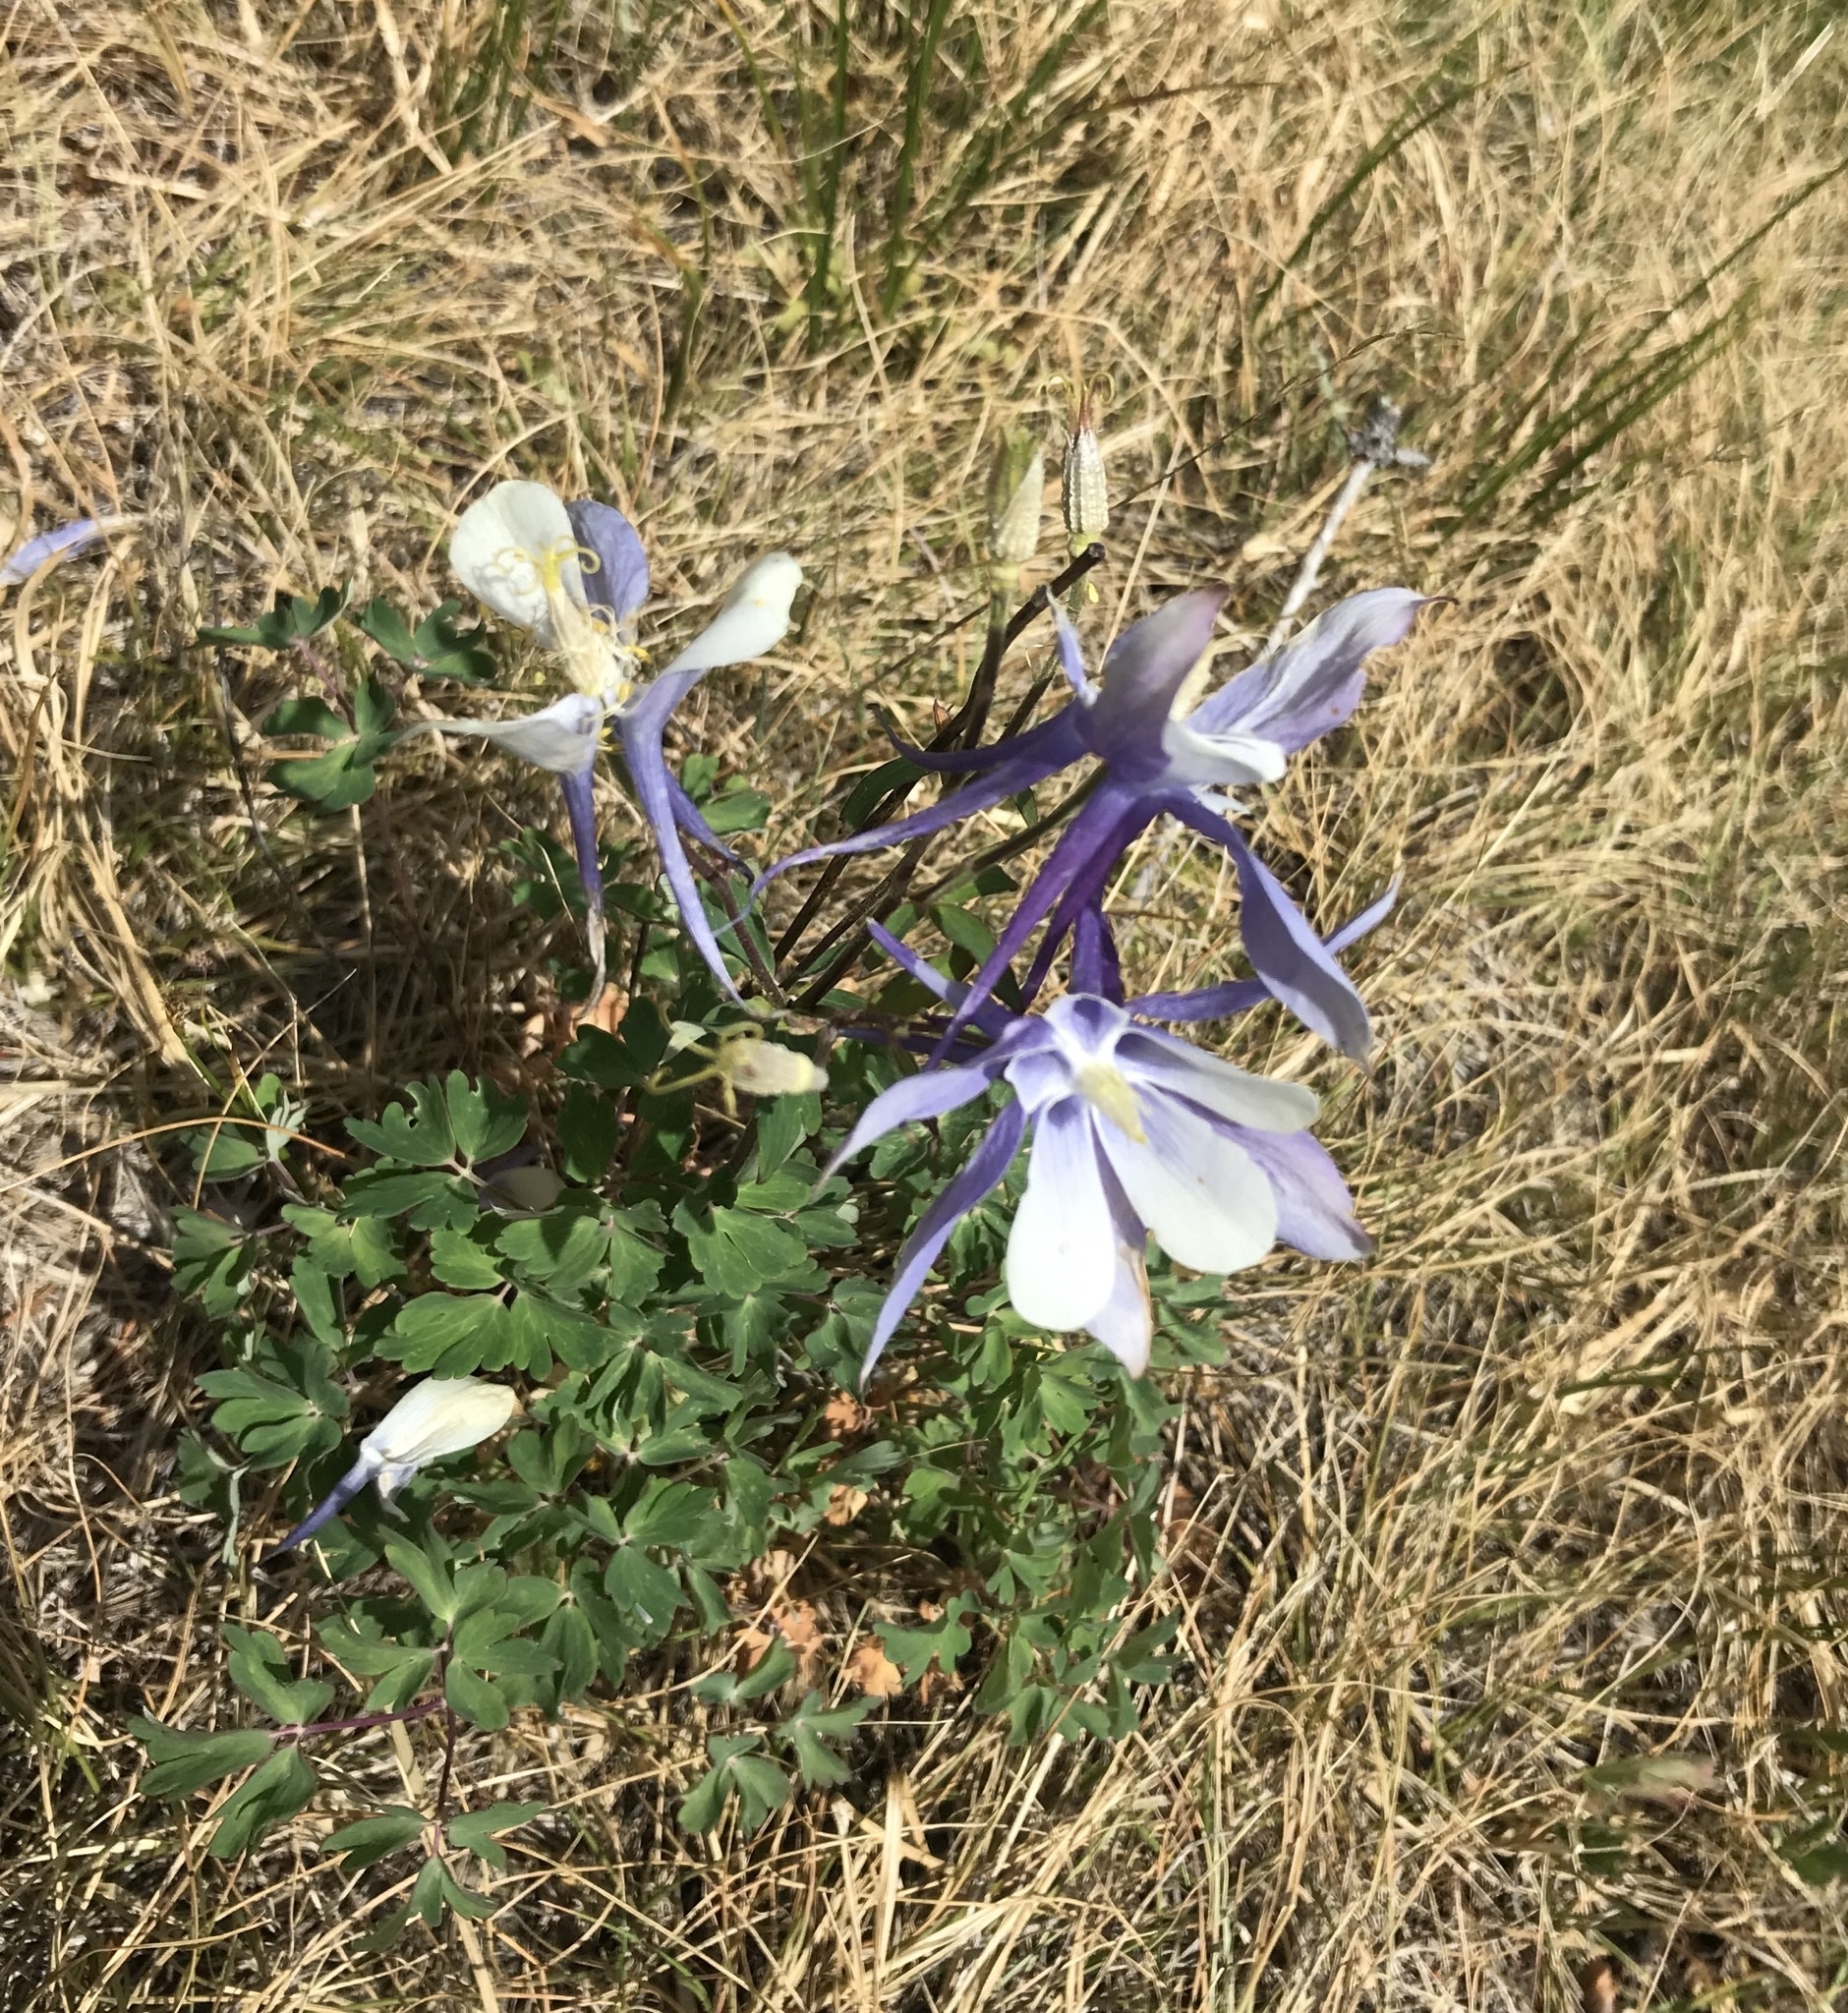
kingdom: Plantae
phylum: Tracheophyta
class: Magnoliopsida
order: Ranunculales
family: Ranunculaceae
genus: Aquilegia
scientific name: Aquilegia coerulea
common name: Rocky mountain columbine
